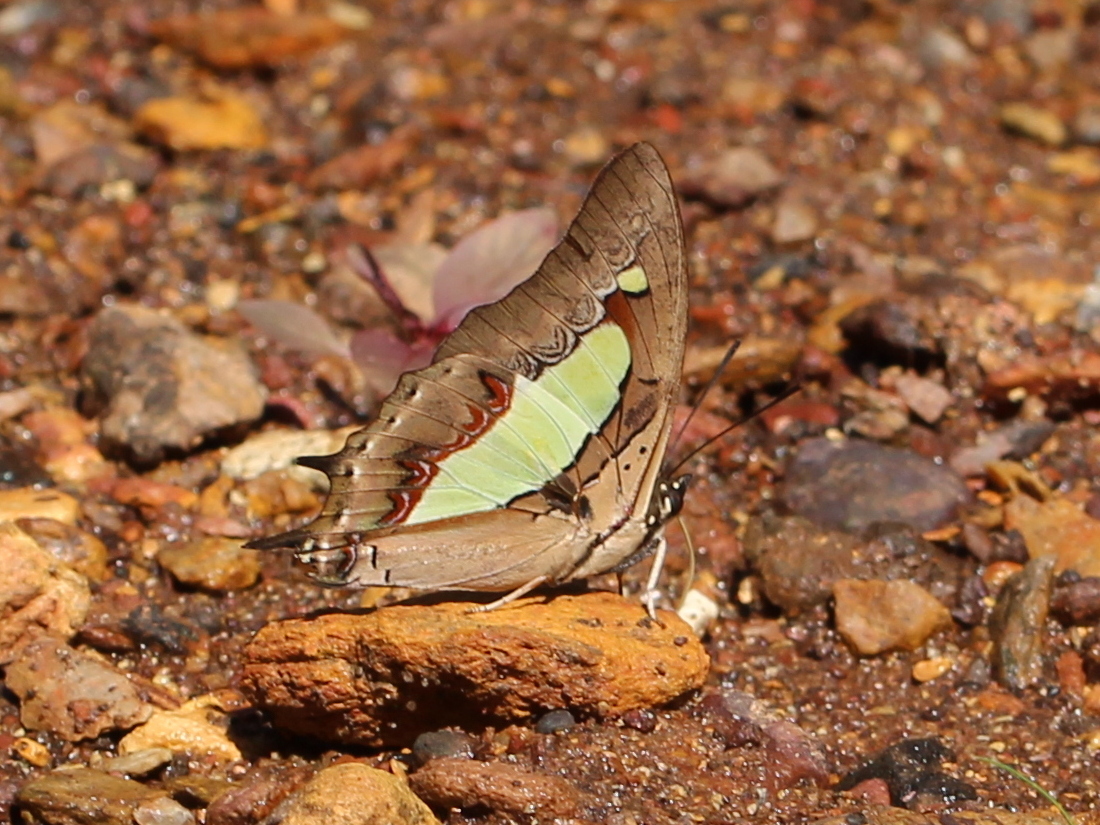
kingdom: Animalia
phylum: Arthropoda
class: Insecta
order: Lepidoptera
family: Nymphalidae
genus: Polyura
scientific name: Polyura
